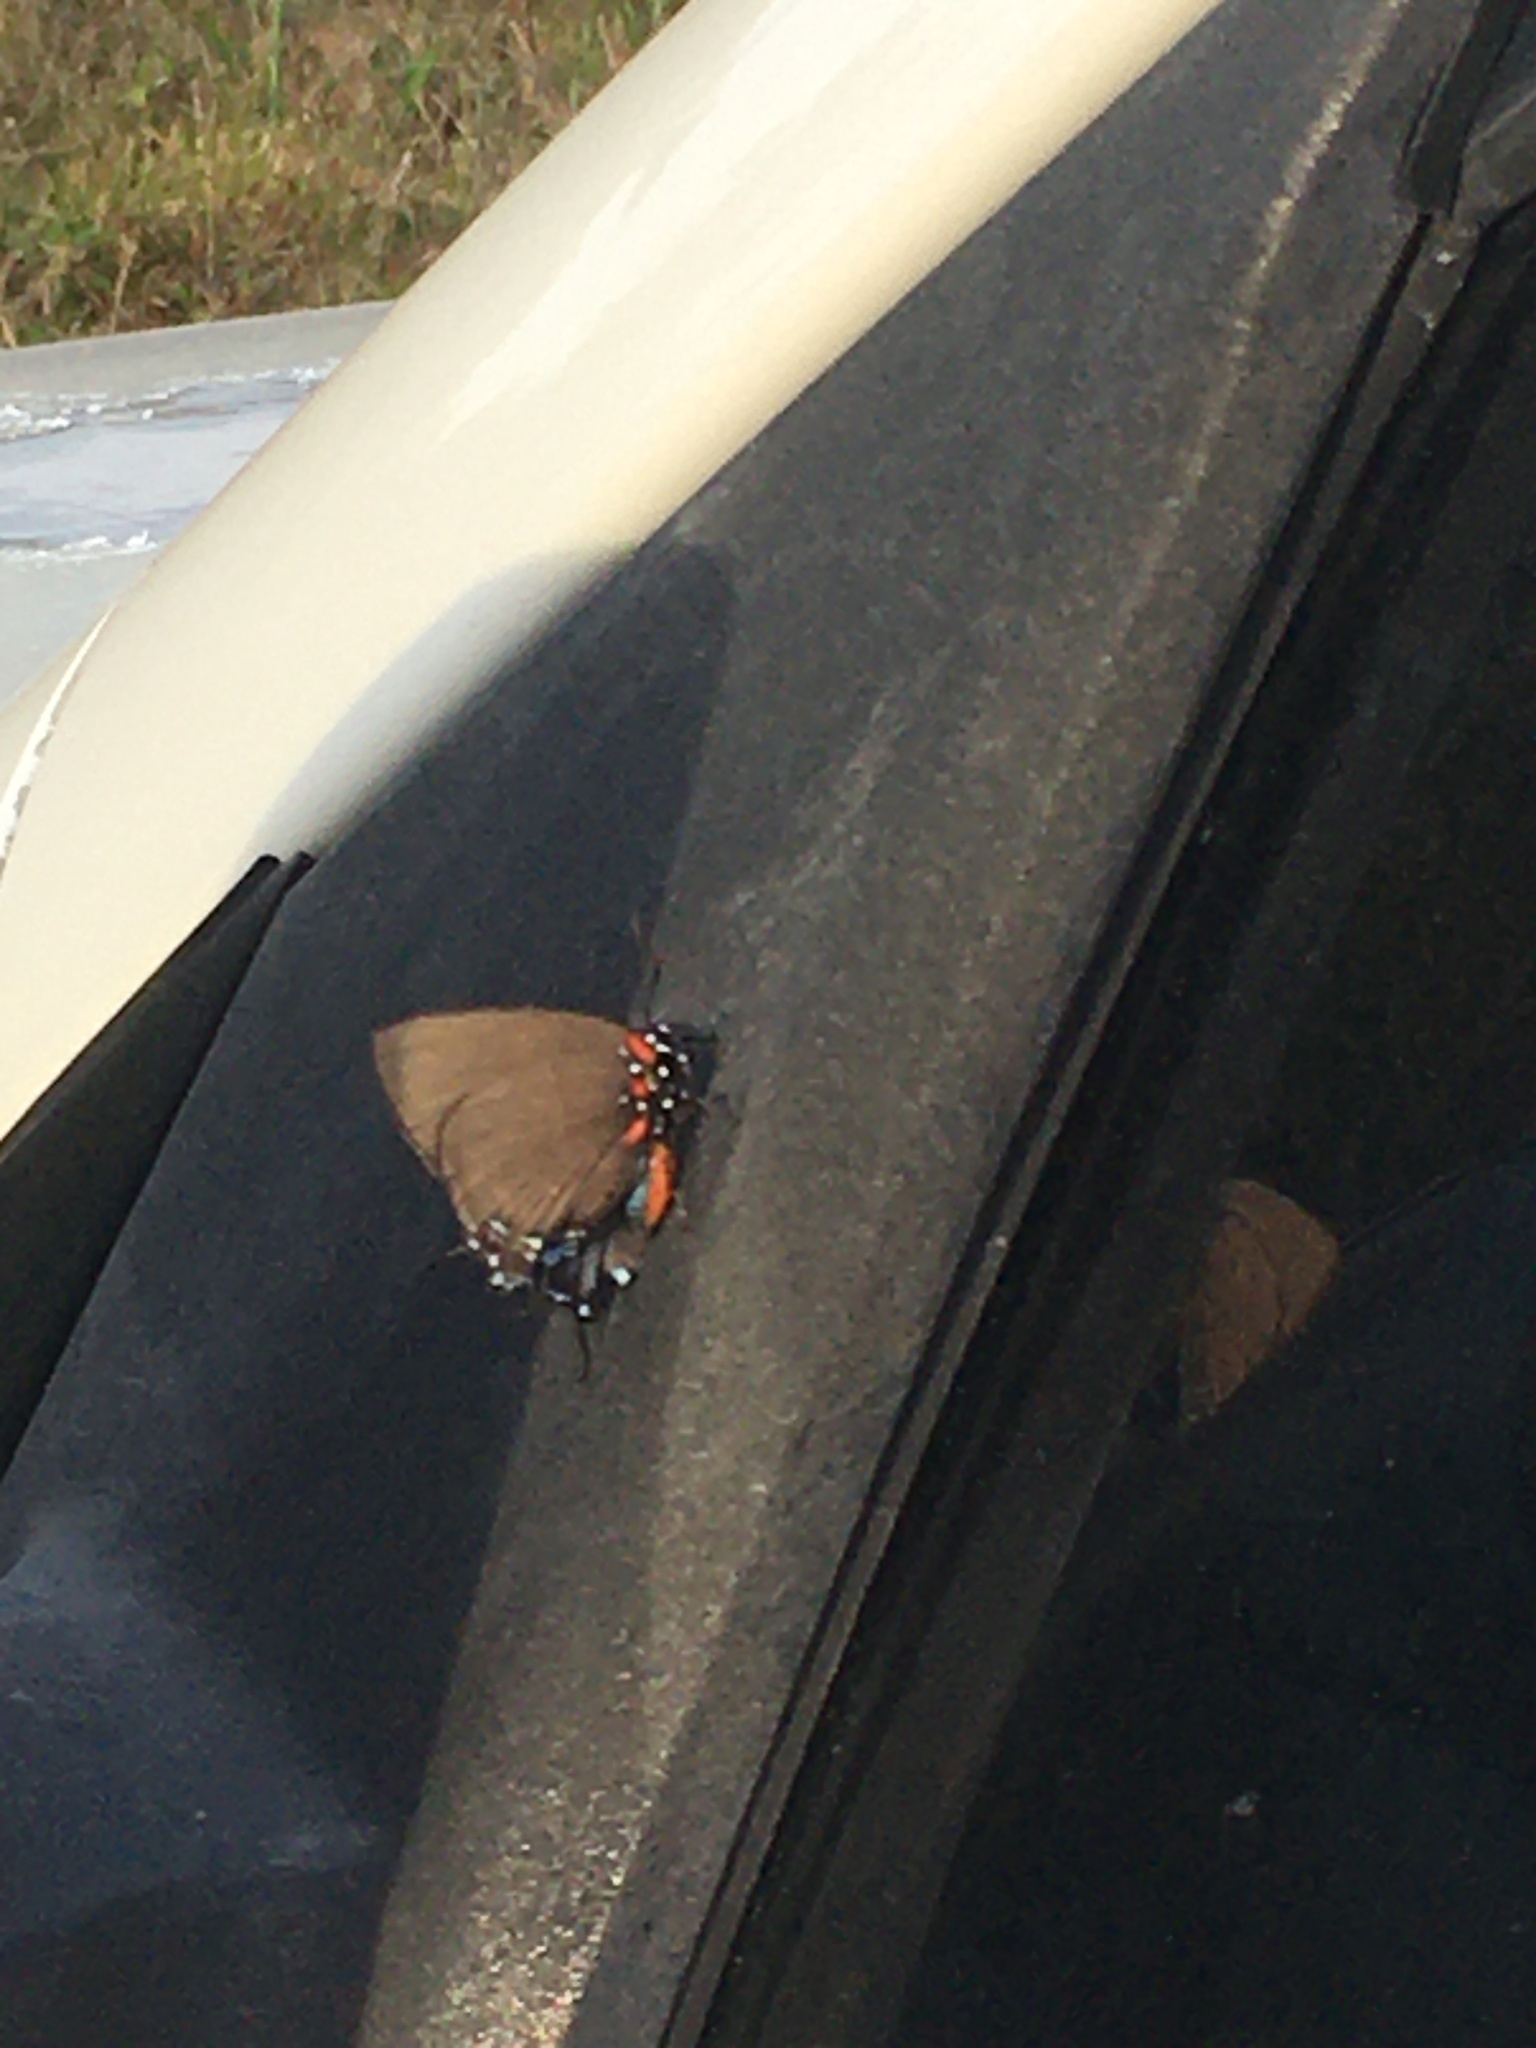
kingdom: Animalia
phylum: Arthropoda
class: Insecta
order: Lepidoptera
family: Lycaenidae
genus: Atlides
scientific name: Atlides halesus
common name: Great purple hairstreak
